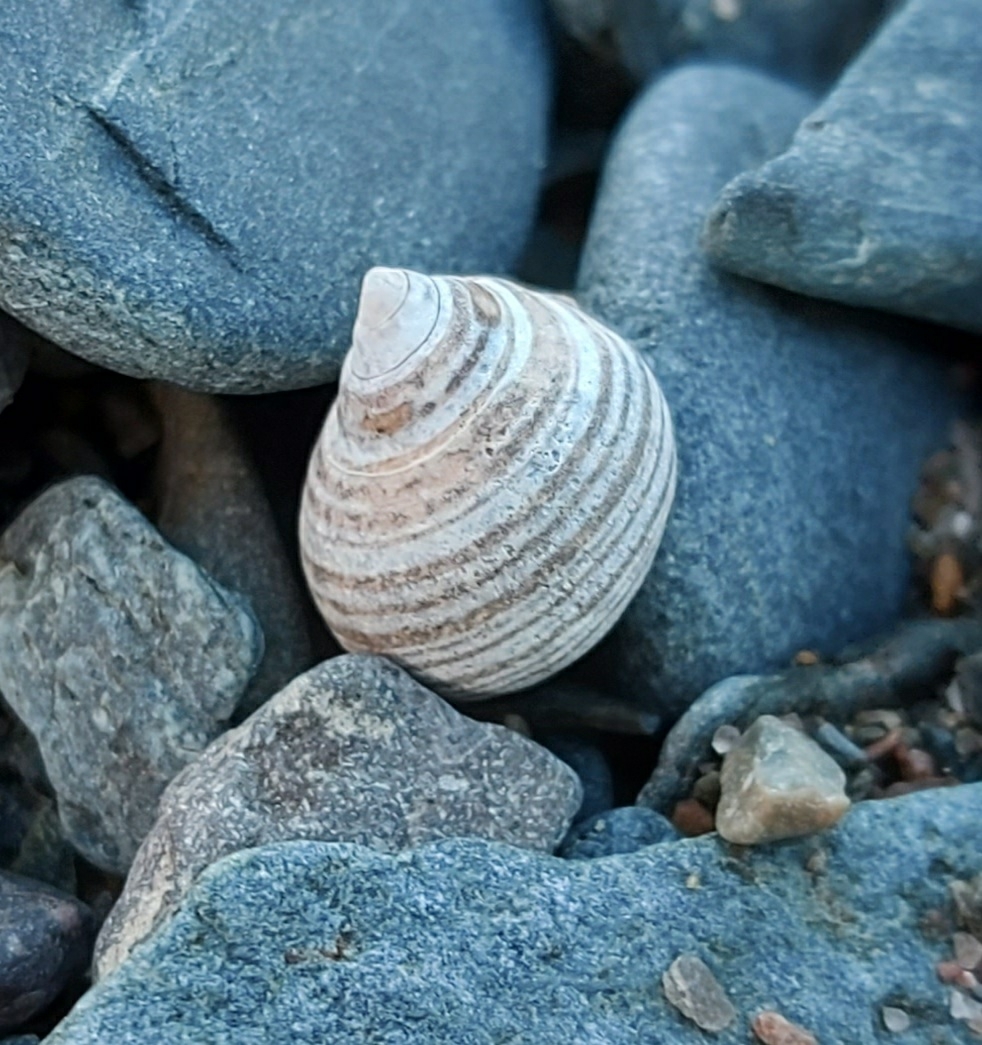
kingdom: Animalia
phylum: Mollusca
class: Gastropoda
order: Littorinimorpha
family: Littorinidae
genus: Littorina
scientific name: Littorina littorea
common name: Common periwinkle
